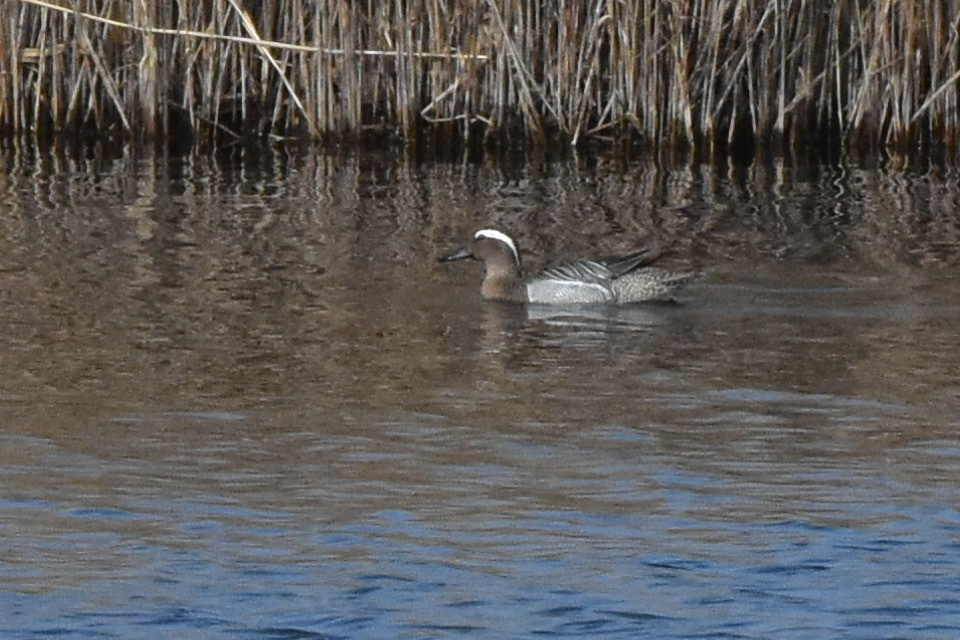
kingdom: Animalia
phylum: Chordata
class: Aves
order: Anseriformes
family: Anatidae
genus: Spatula
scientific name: Spatula querquedula
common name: Garganey
